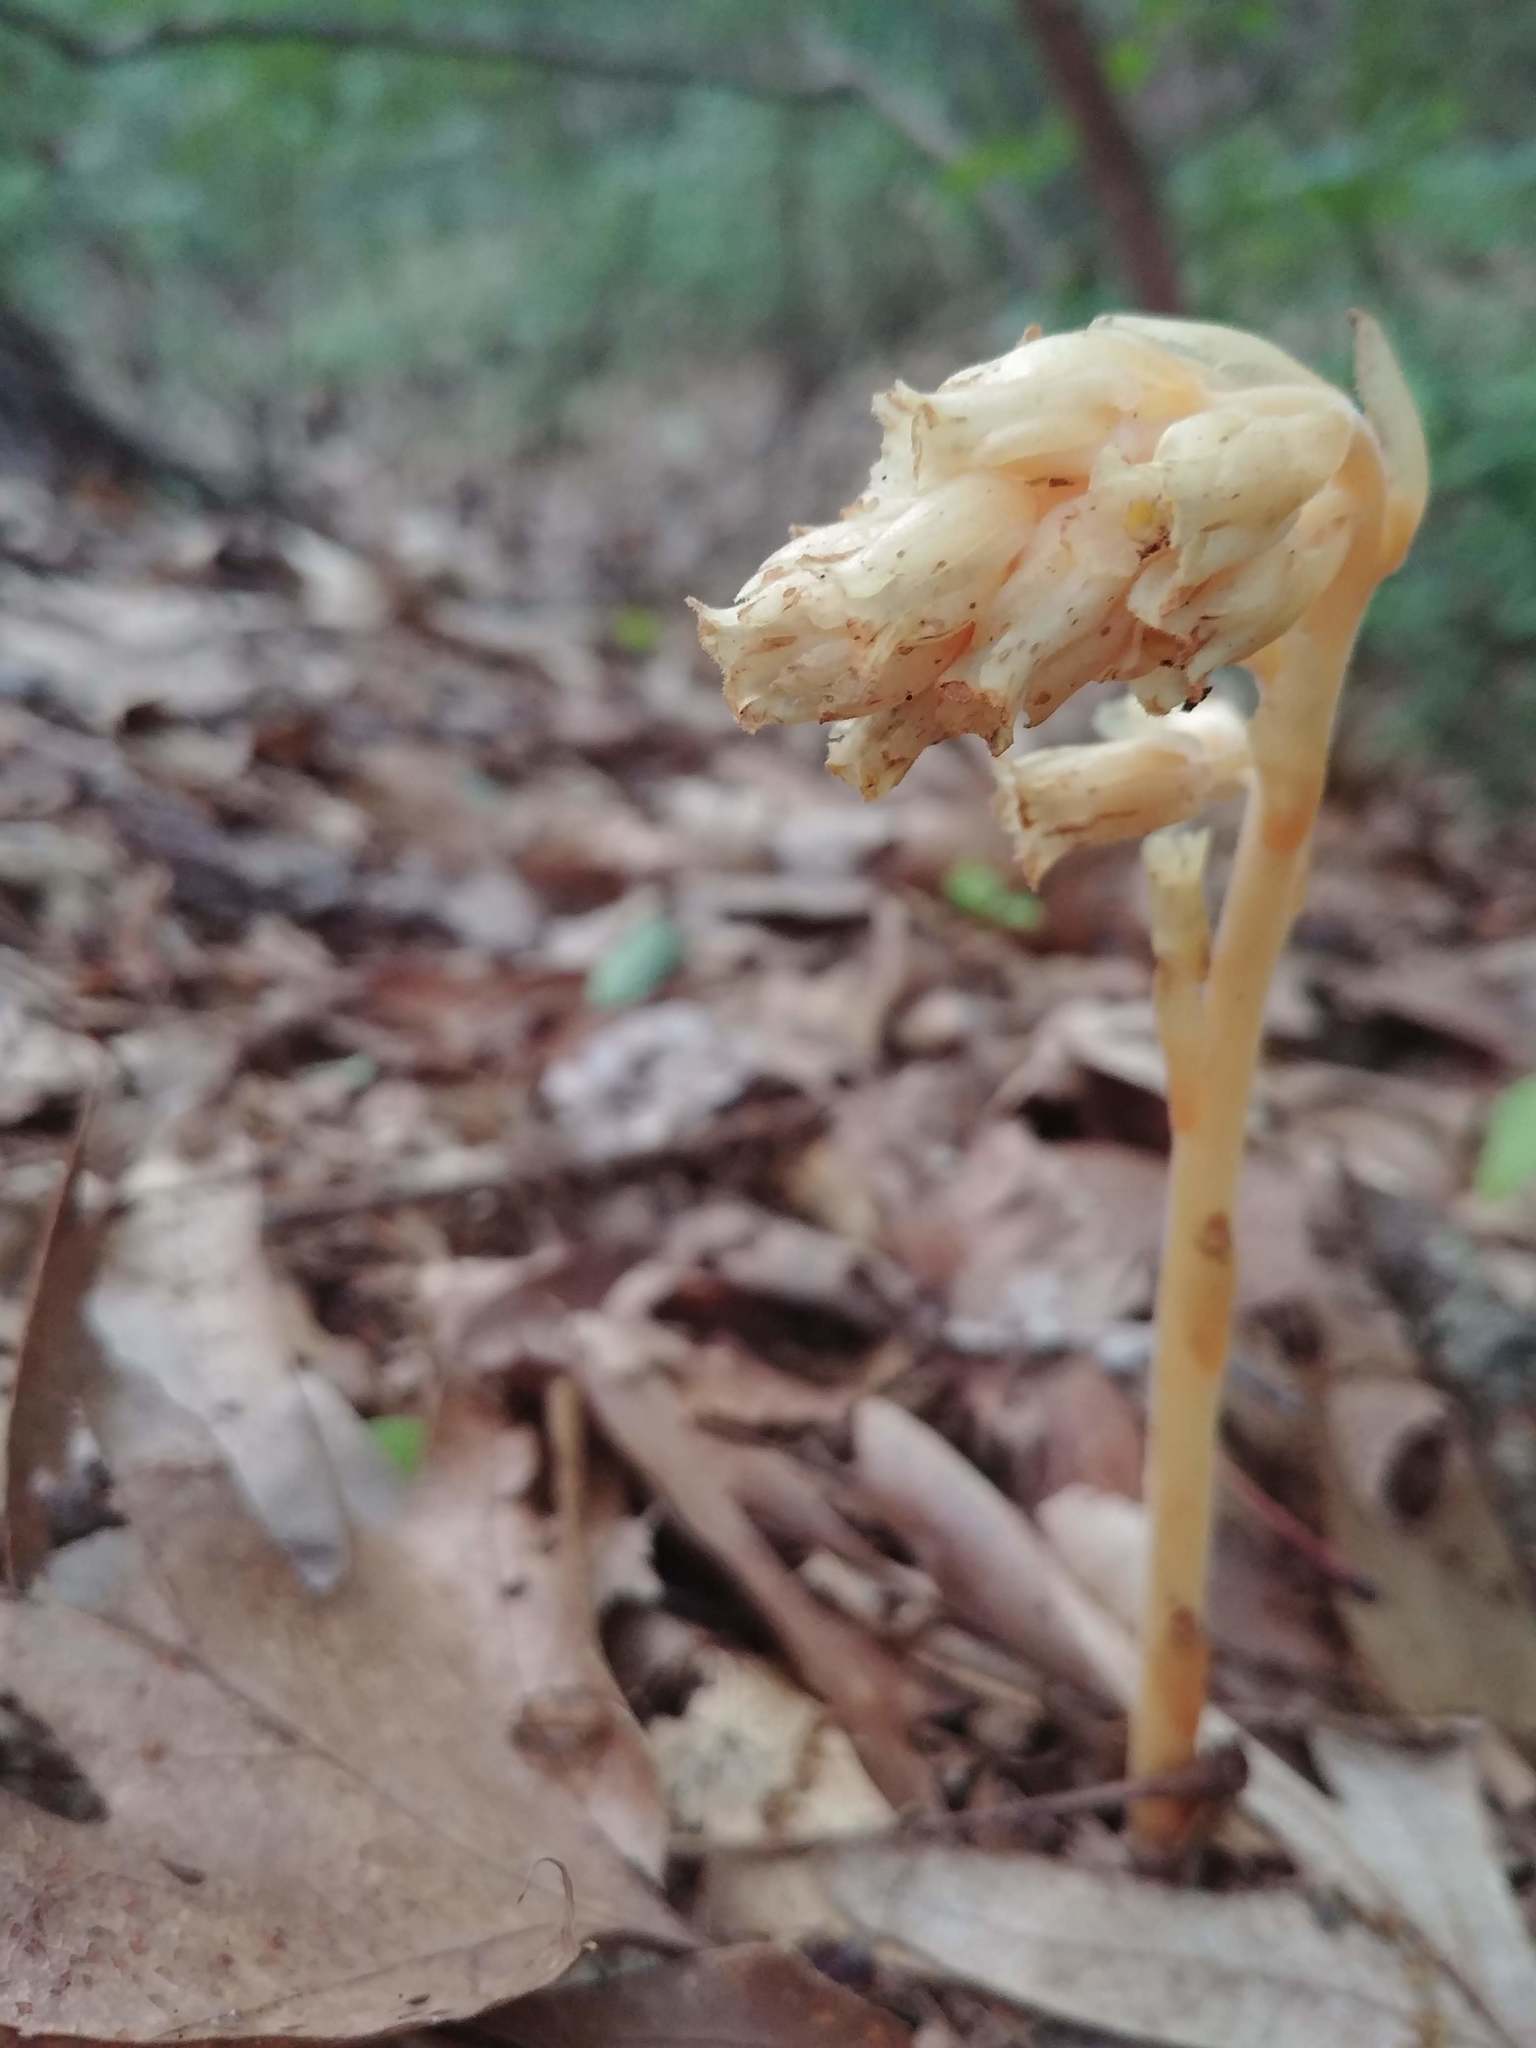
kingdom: Plantae
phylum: Tracheophyta
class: Magnoliopsida
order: Ericales
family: Ericaceae
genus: Hypopitys
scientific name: Hypopitys monotropa
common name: Yellow bird's-nest
